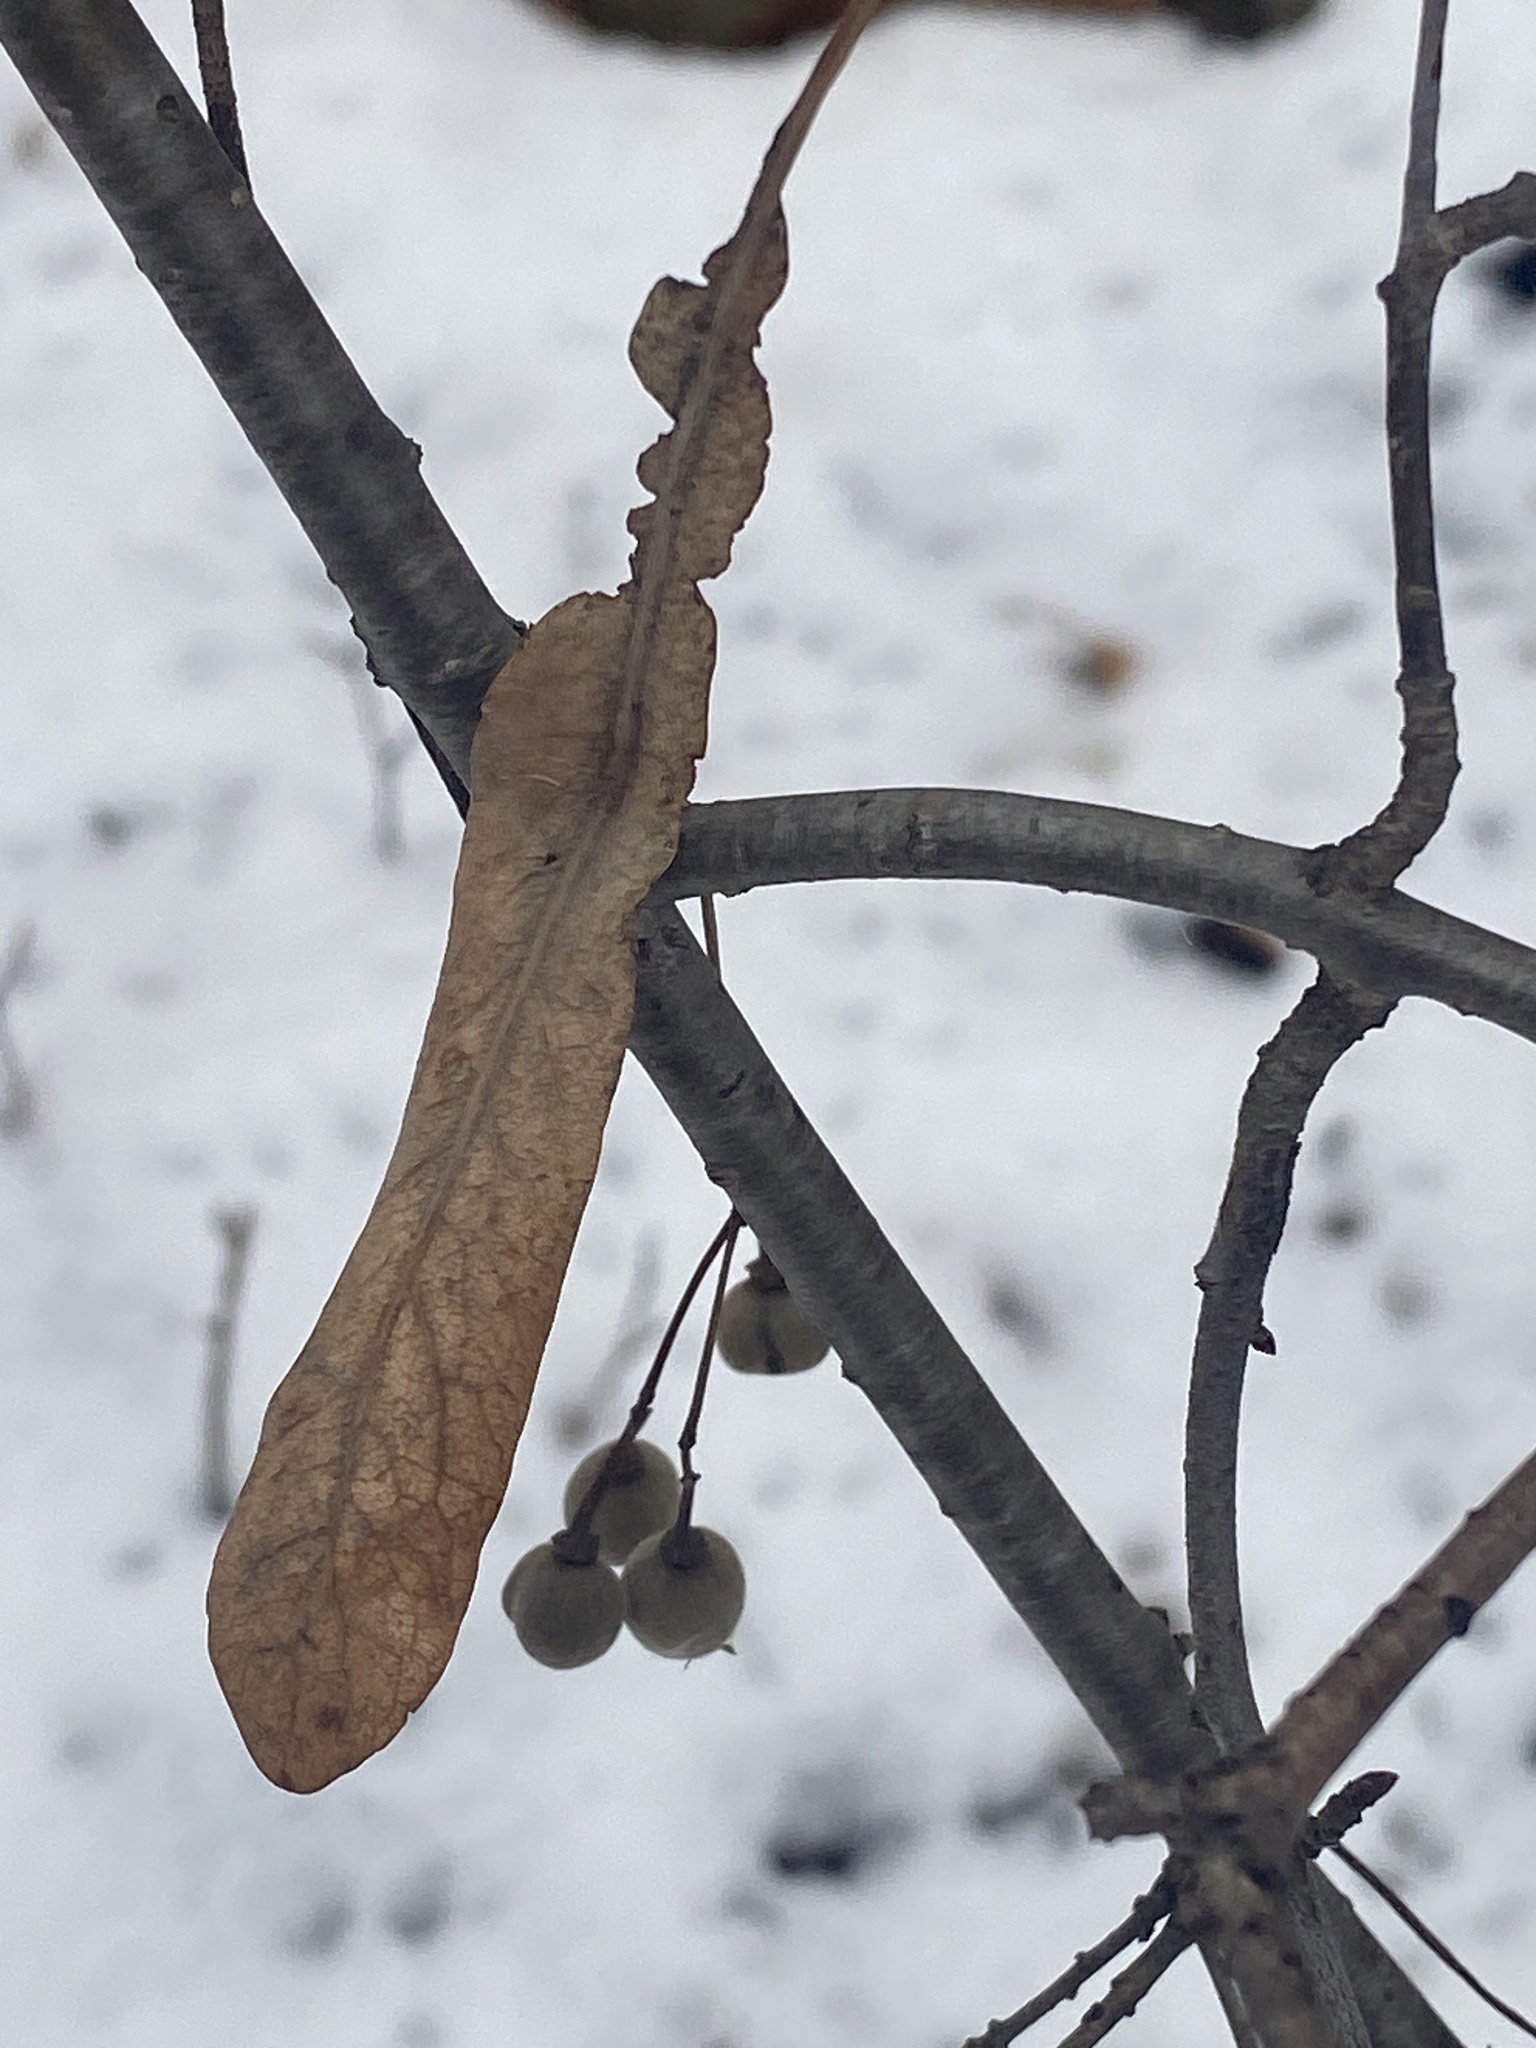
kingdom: Plantae
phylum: Tracheophyta
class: Magnoliopsida
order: Malvales
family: Malvaceae
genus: Tilia
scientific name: Tilia americana
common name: Basswood
